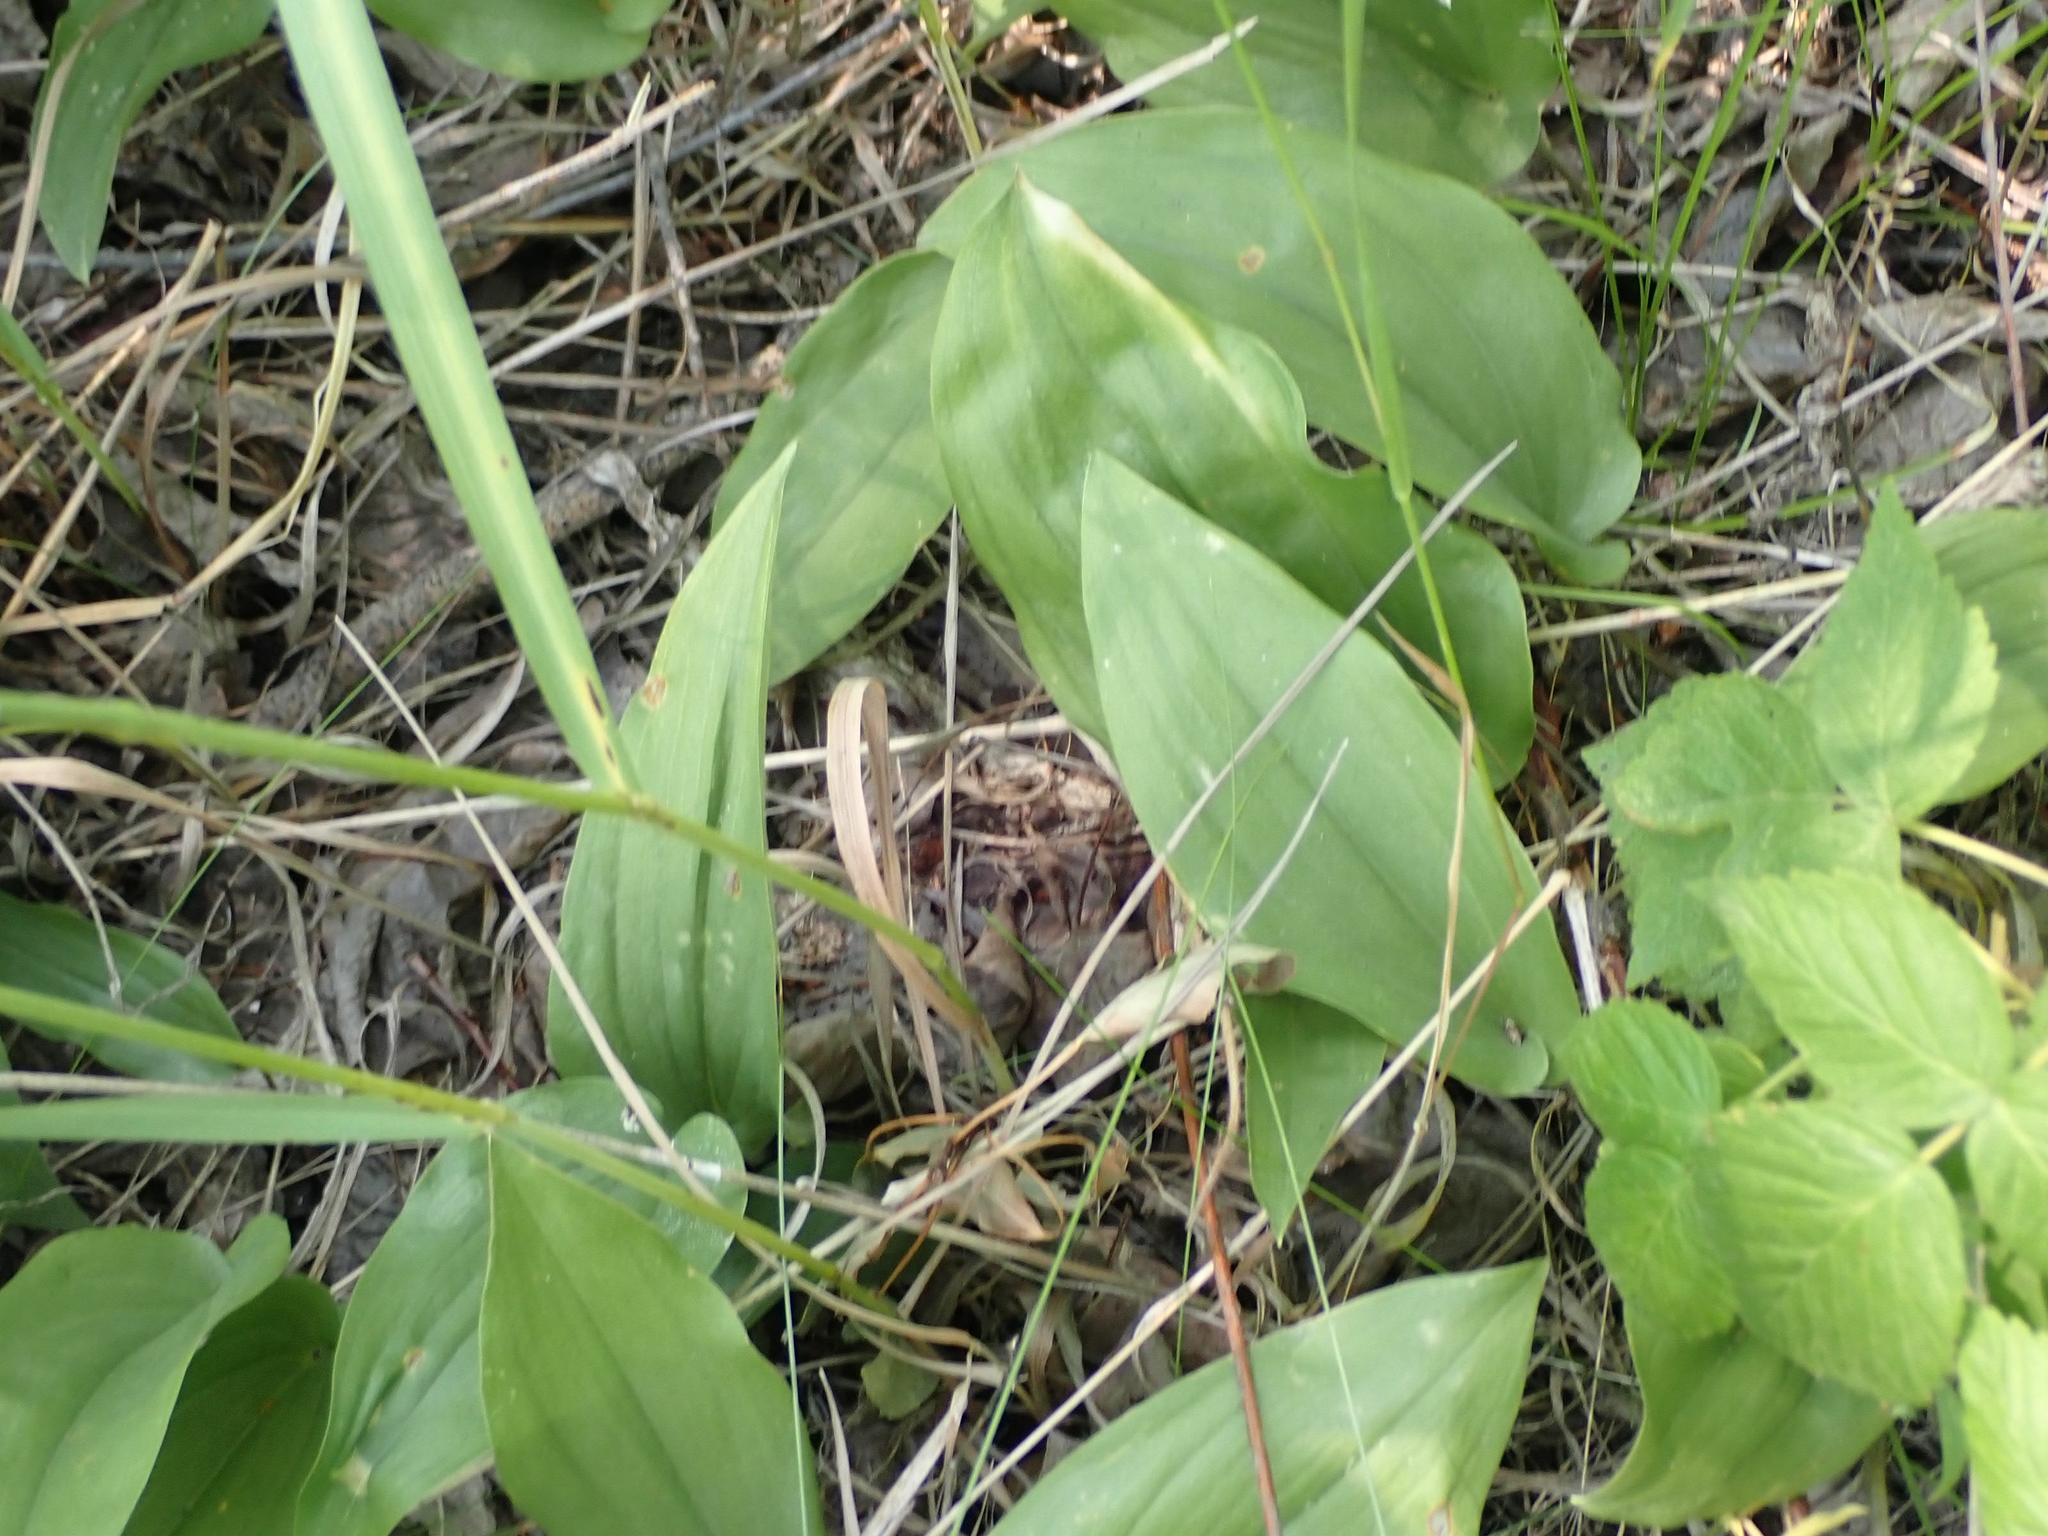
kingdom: Plantae
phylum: Tracheophyta
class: Liliopsida
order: Asparagales
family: Asparagaceae
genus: Maianthemum
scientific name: Maianthemum canadense
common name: False lily-of-the-valley
